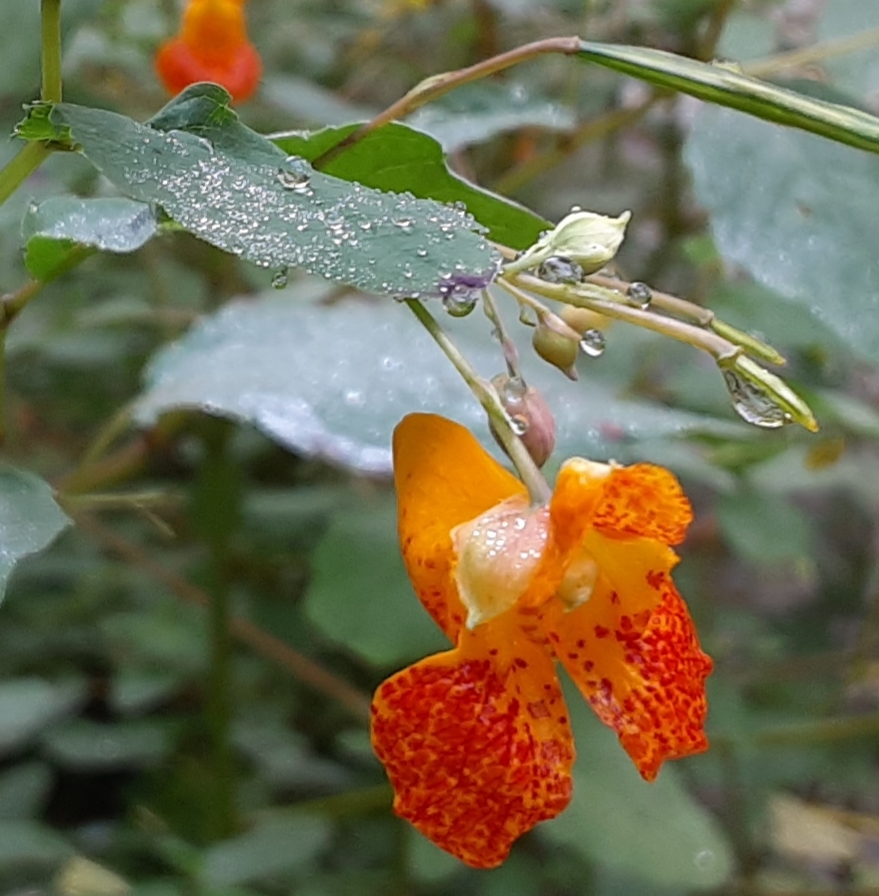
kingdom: Plantae
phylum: Tracheophyta
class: Magnoliopsida
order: Ericales
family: Balsaminaceae
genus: Impatiens
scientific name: Impatiens capensis
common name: Orange balsam
